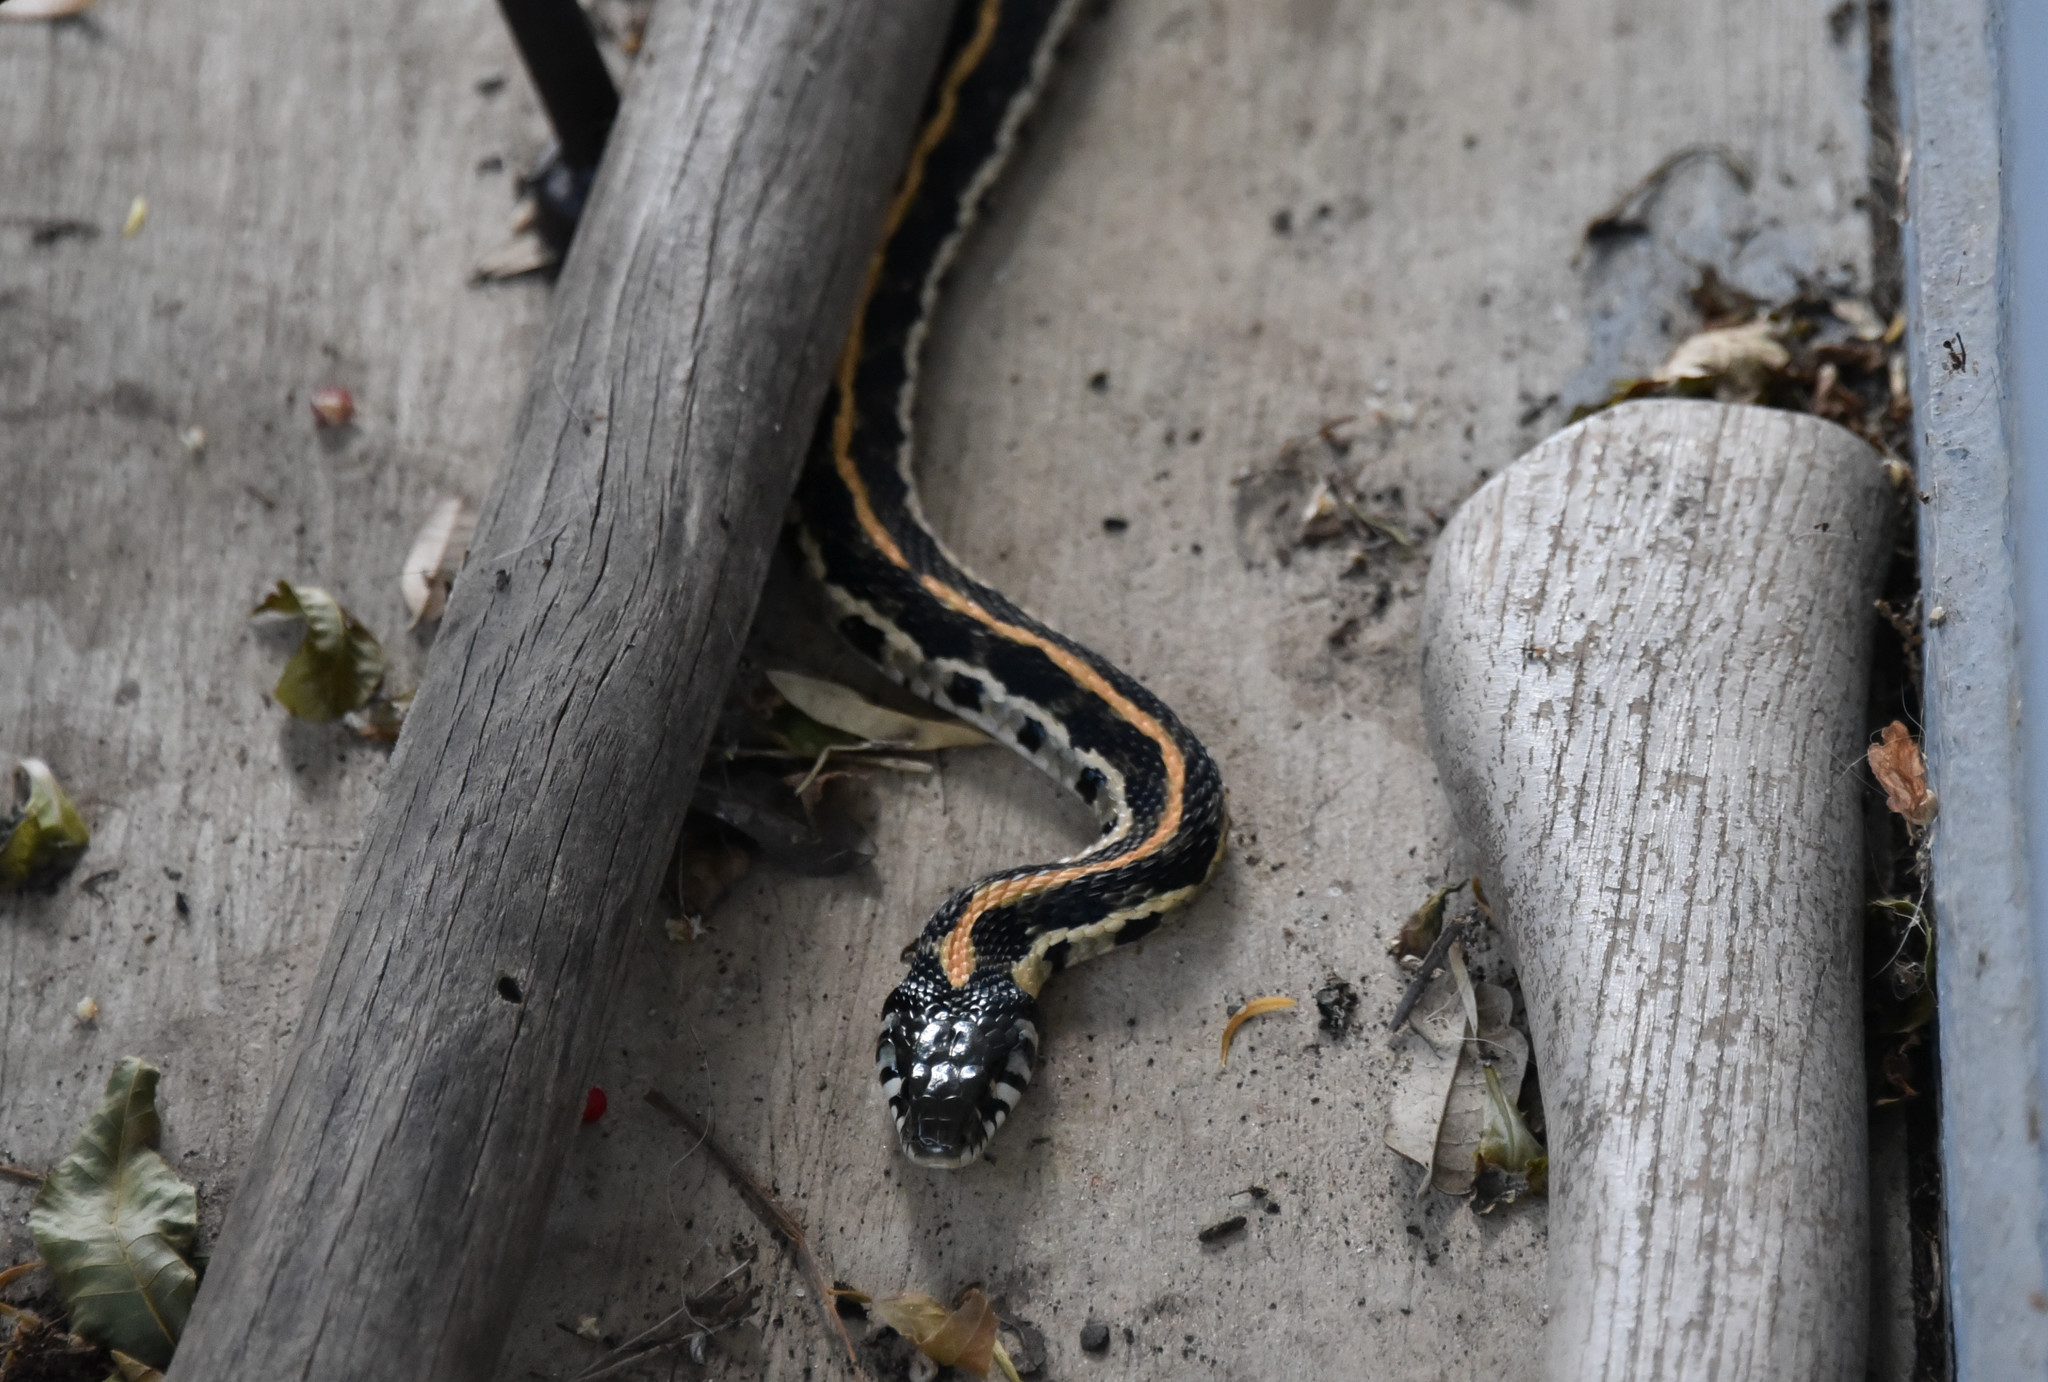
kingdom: Animalia
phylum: Chordata
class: Squamata
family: Colubridae
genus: Thamnophis
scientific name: Thamnophis cyrtopsis
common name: Black-necked gartersnake
